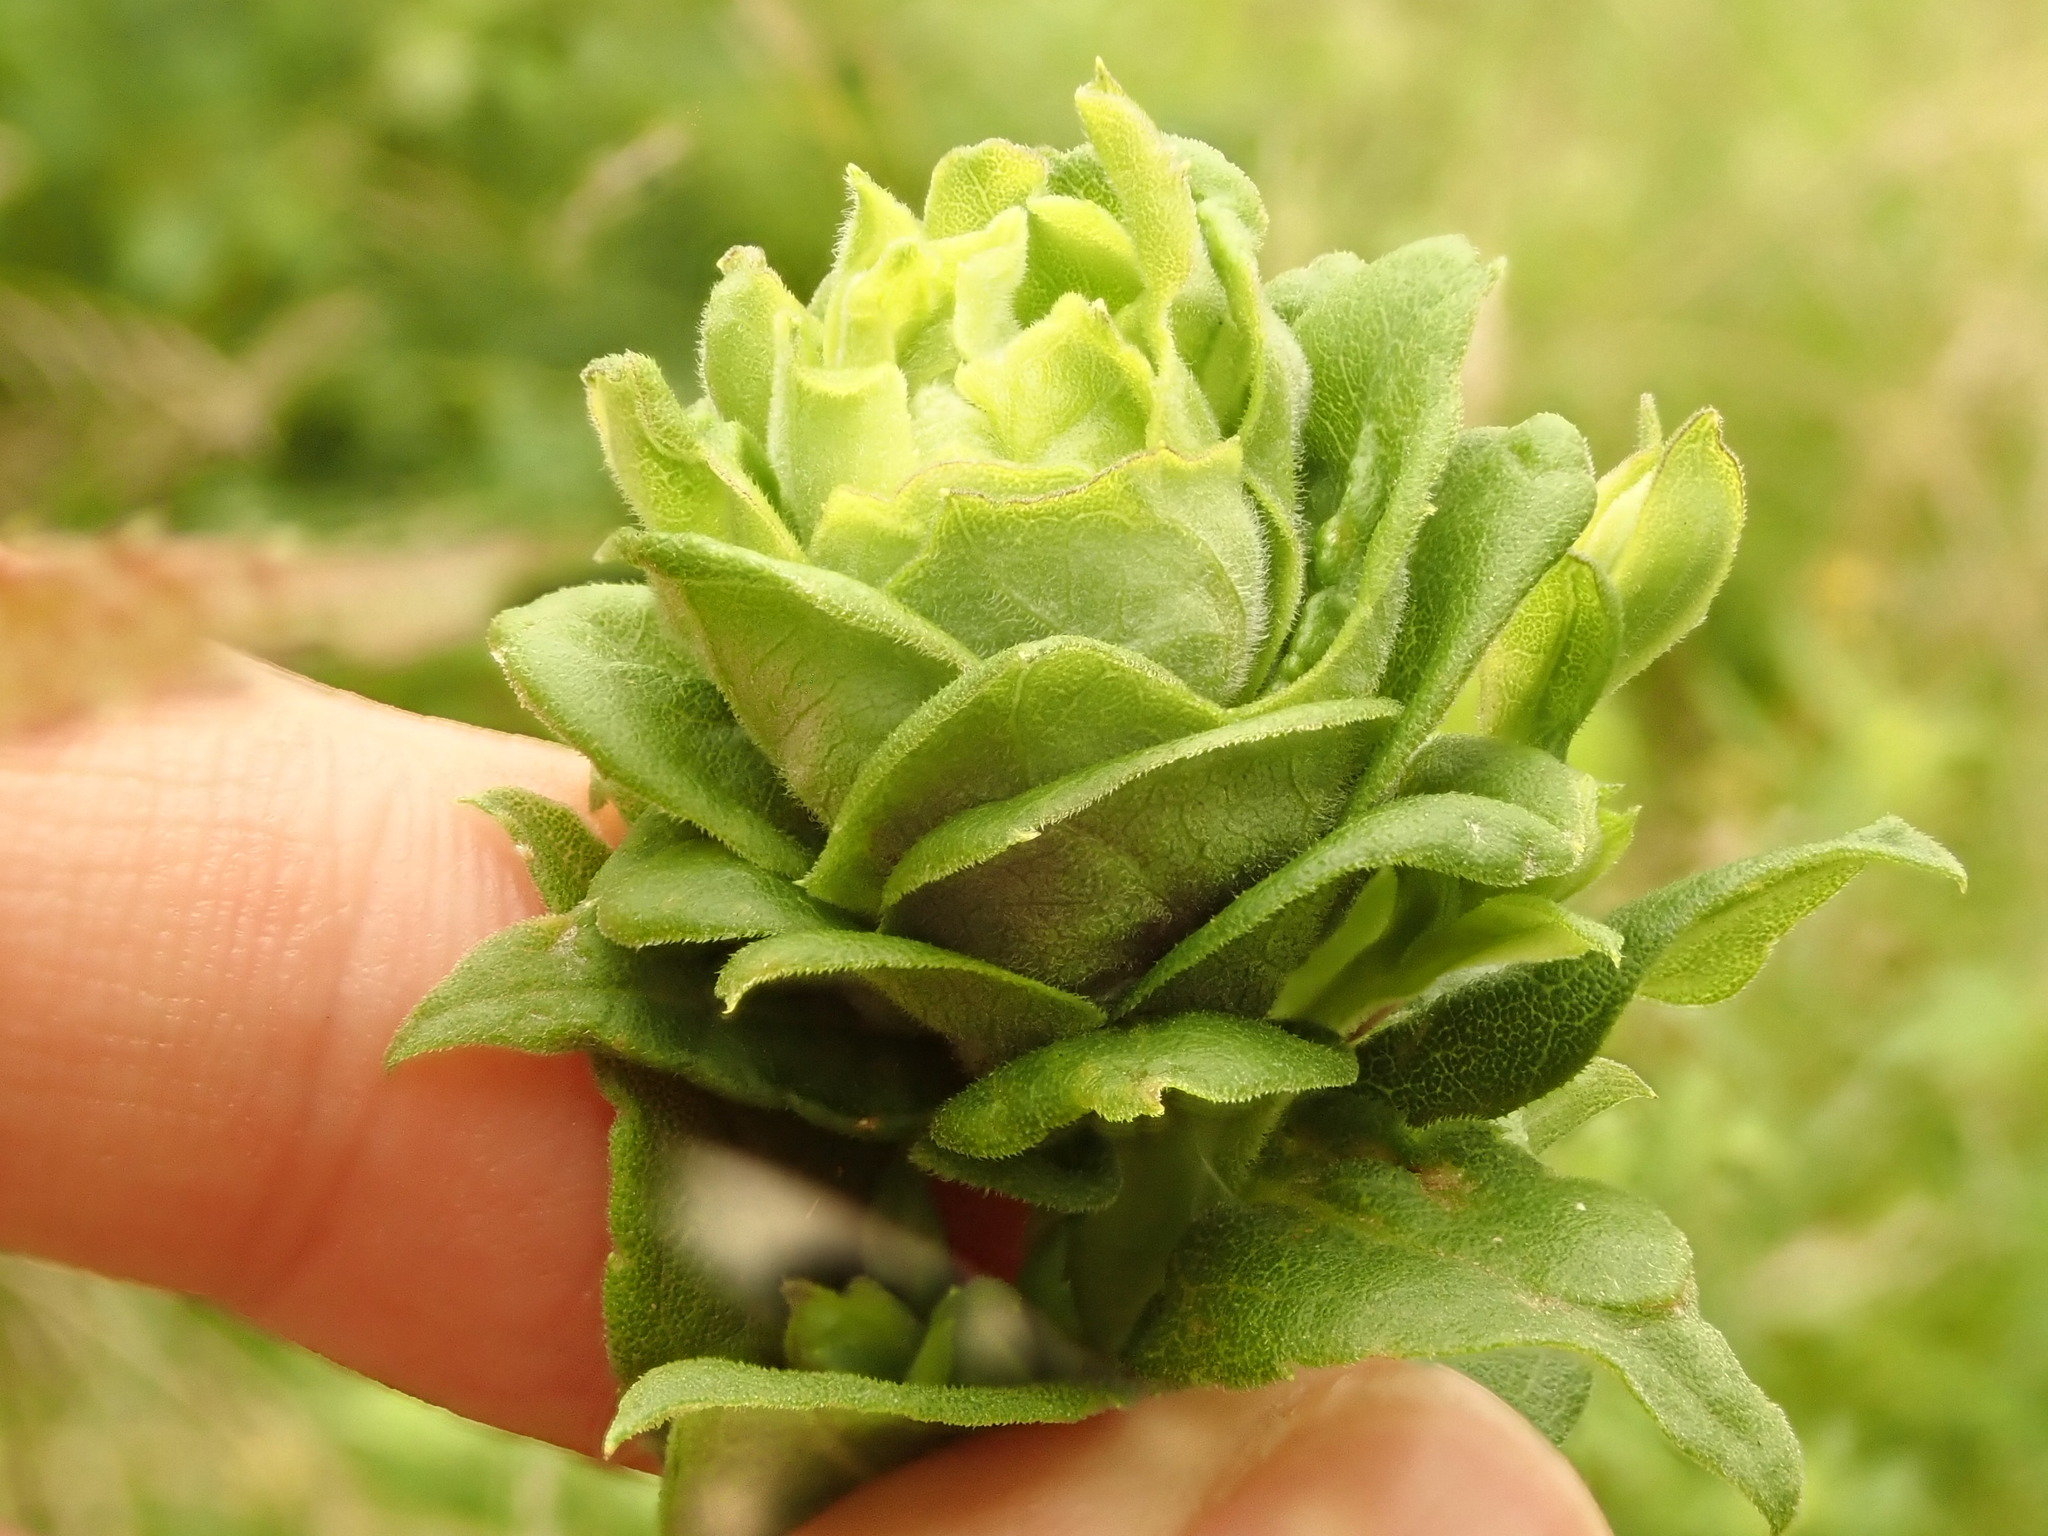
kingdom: Animalia
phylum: Arthropoda
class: Insecta
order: Diptera
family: Cecidomyiidae
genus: Rhopalomyia
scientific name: Rhopalomyia solidaginis
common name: Goldenrod bunch gall midge
